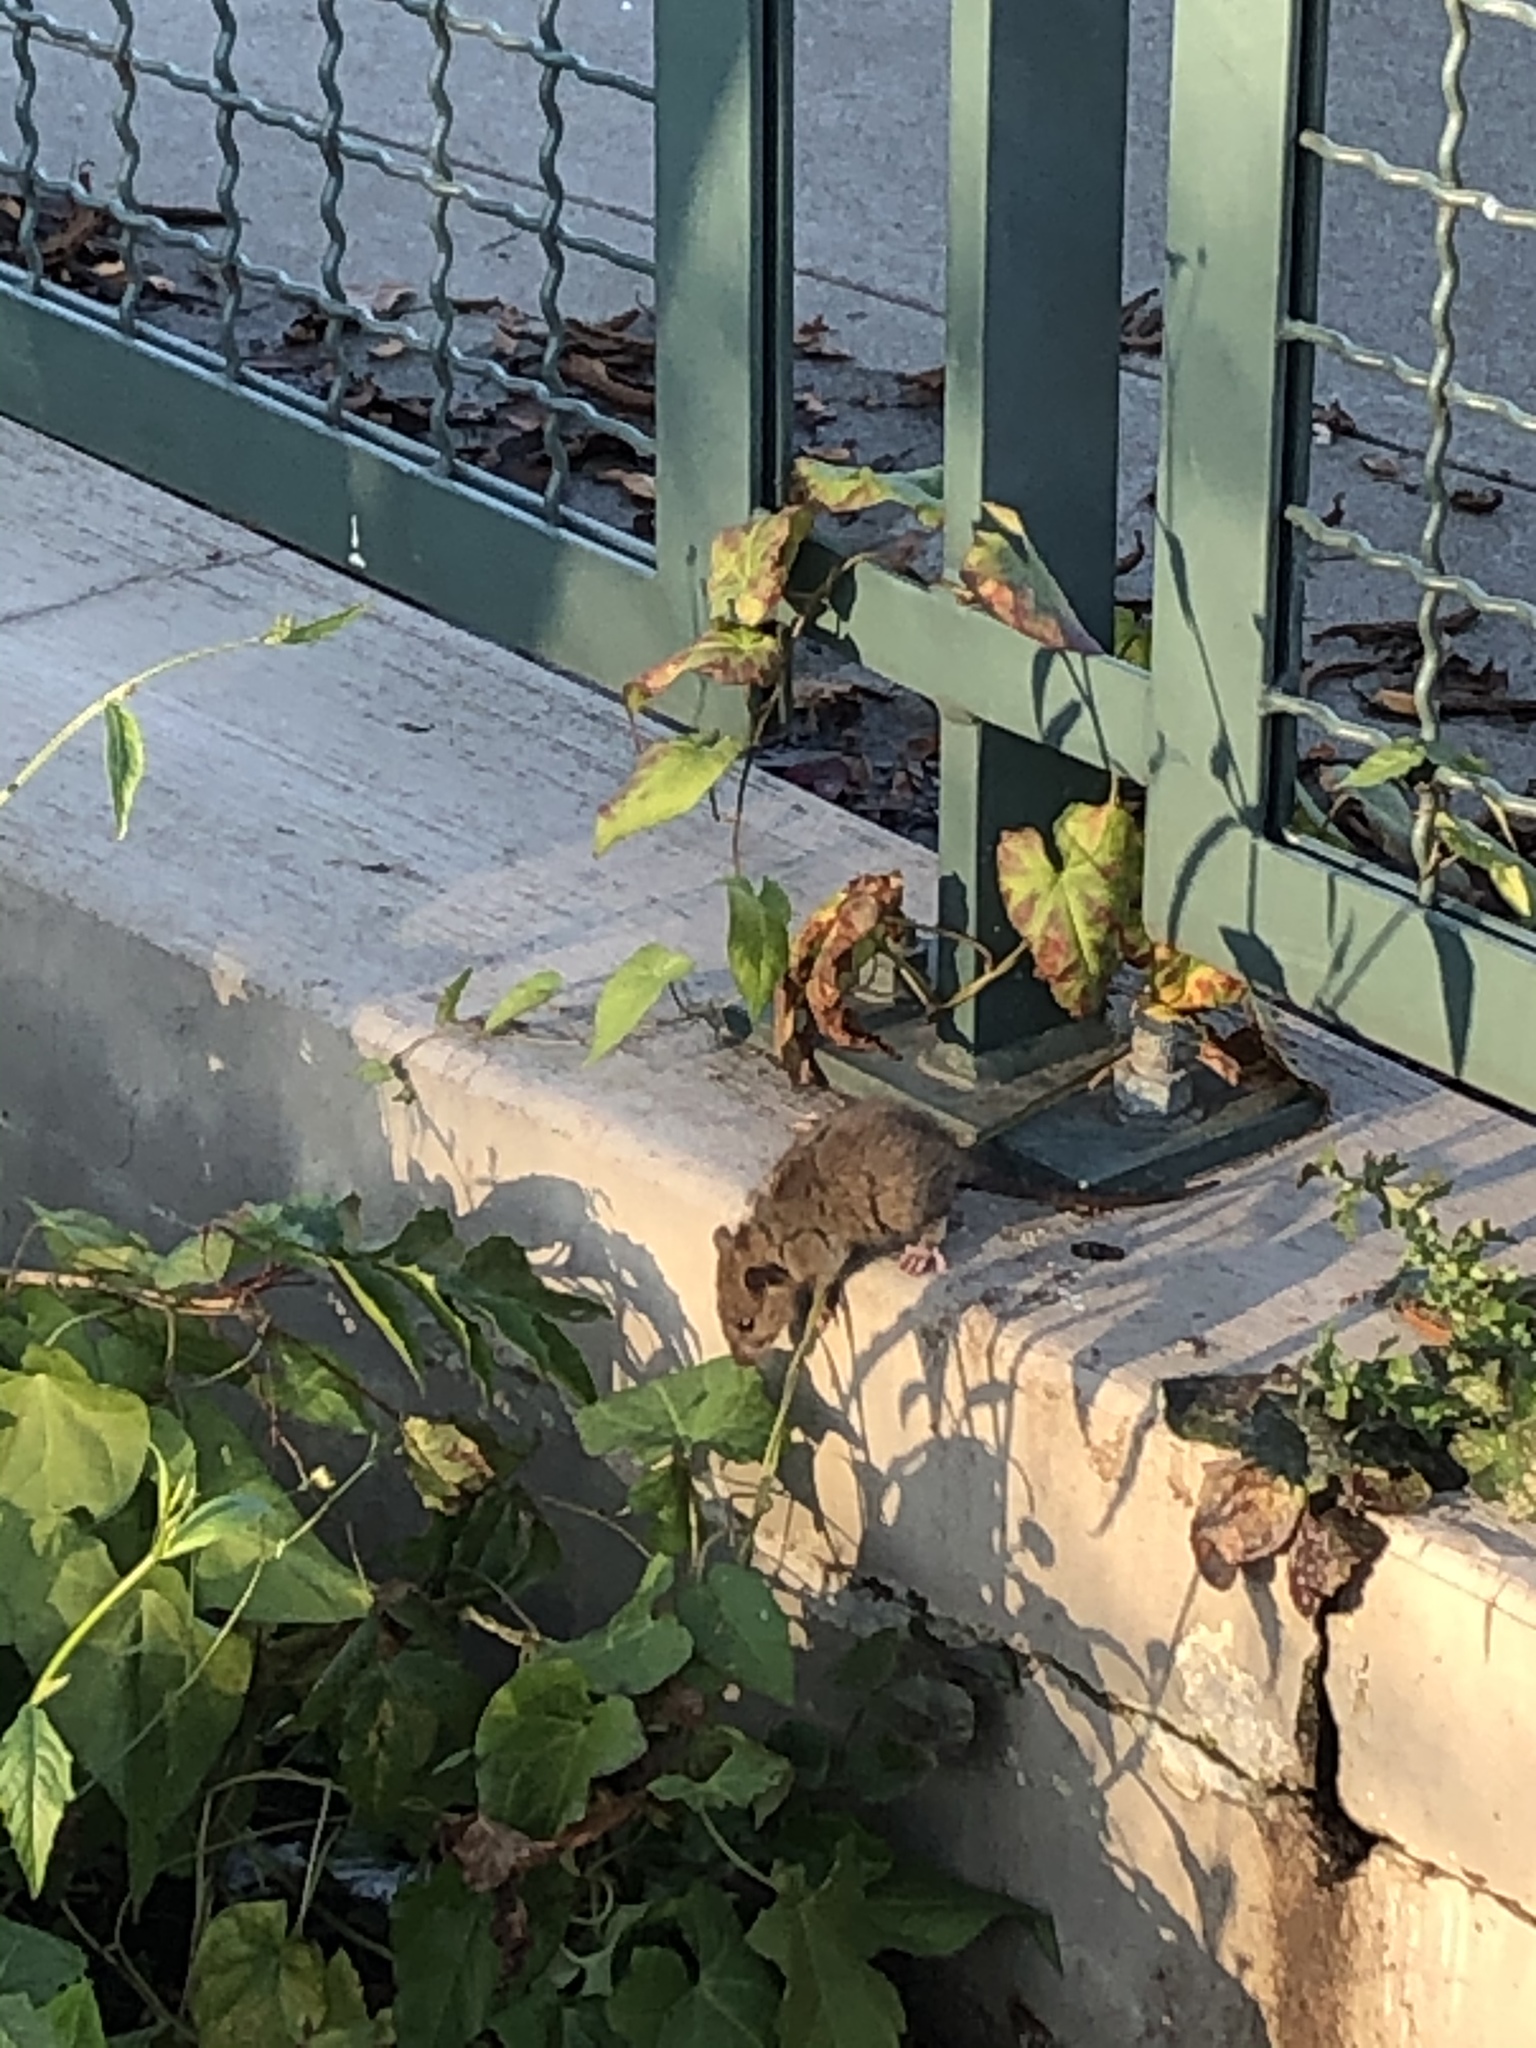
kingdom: Animalia
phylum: Chordata
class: Mammalia
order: Rodentia
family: Muridae
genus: Rattus
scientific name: Rattus norvegicus
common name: Brown rat
